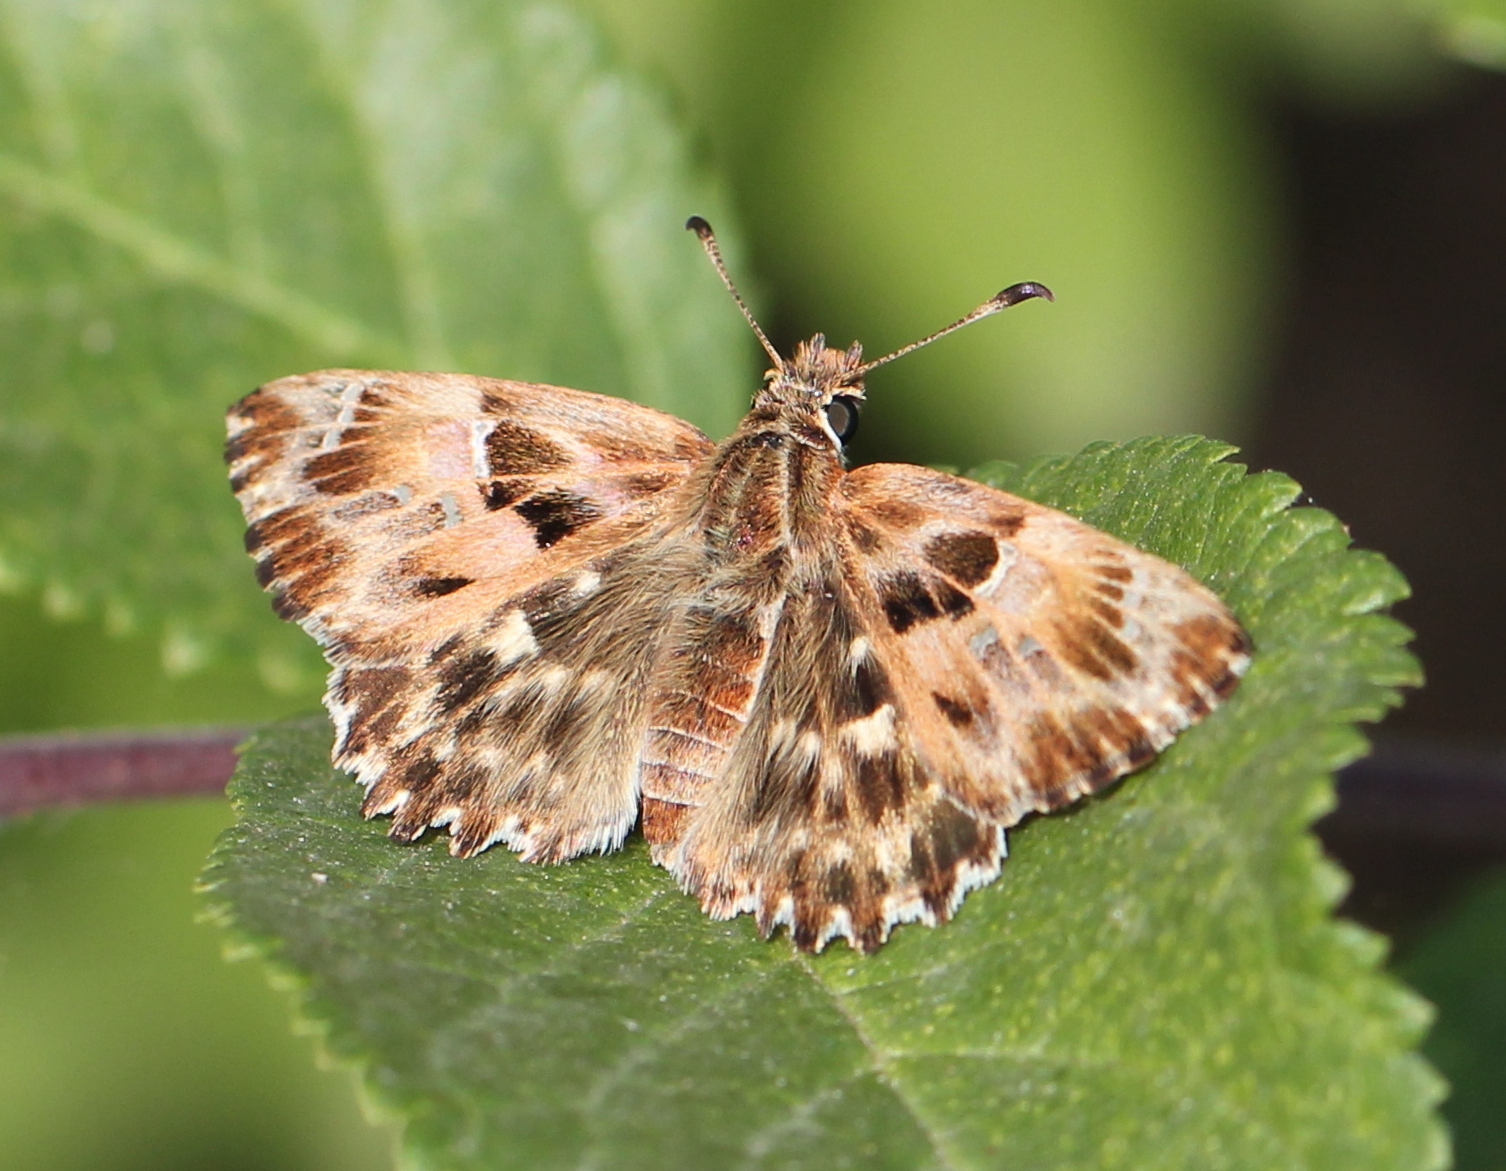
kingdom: Animalia
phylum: Arthropoda
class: Insecta
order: Lepidoptera
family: Hesperiidae
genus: Carcharodus
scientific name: Carcharodus alceae
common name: Mallow skipper
